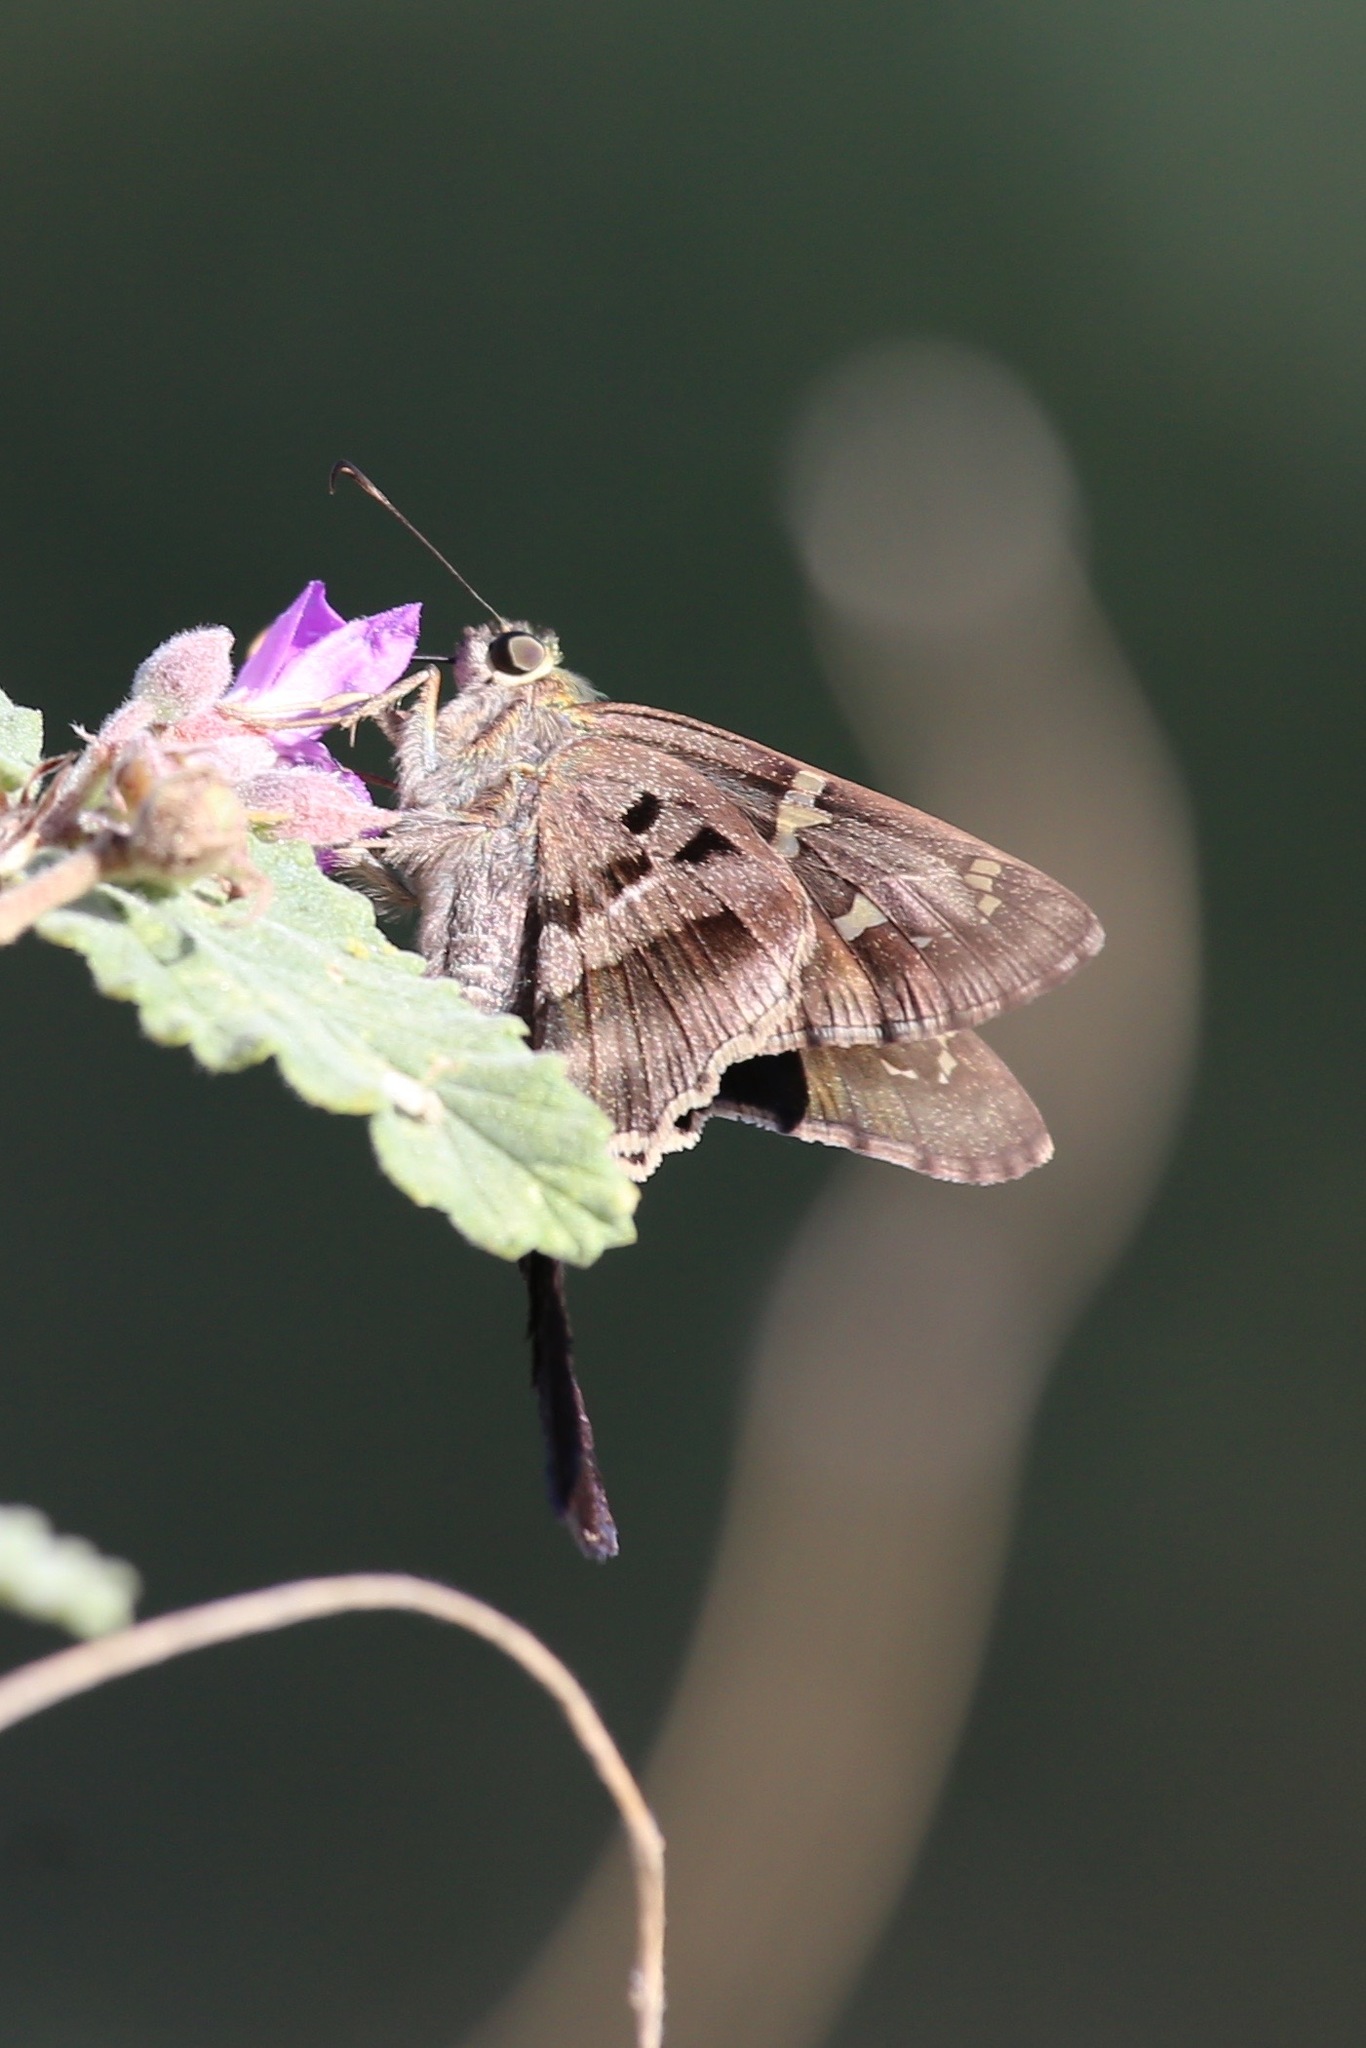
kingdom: Animalia
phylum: Arthropoda
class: Insecta
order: Lepidoptera
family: Hesperiidae
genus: Urbanus
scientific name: Urbanus proteus
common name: Long-tailed skipper
